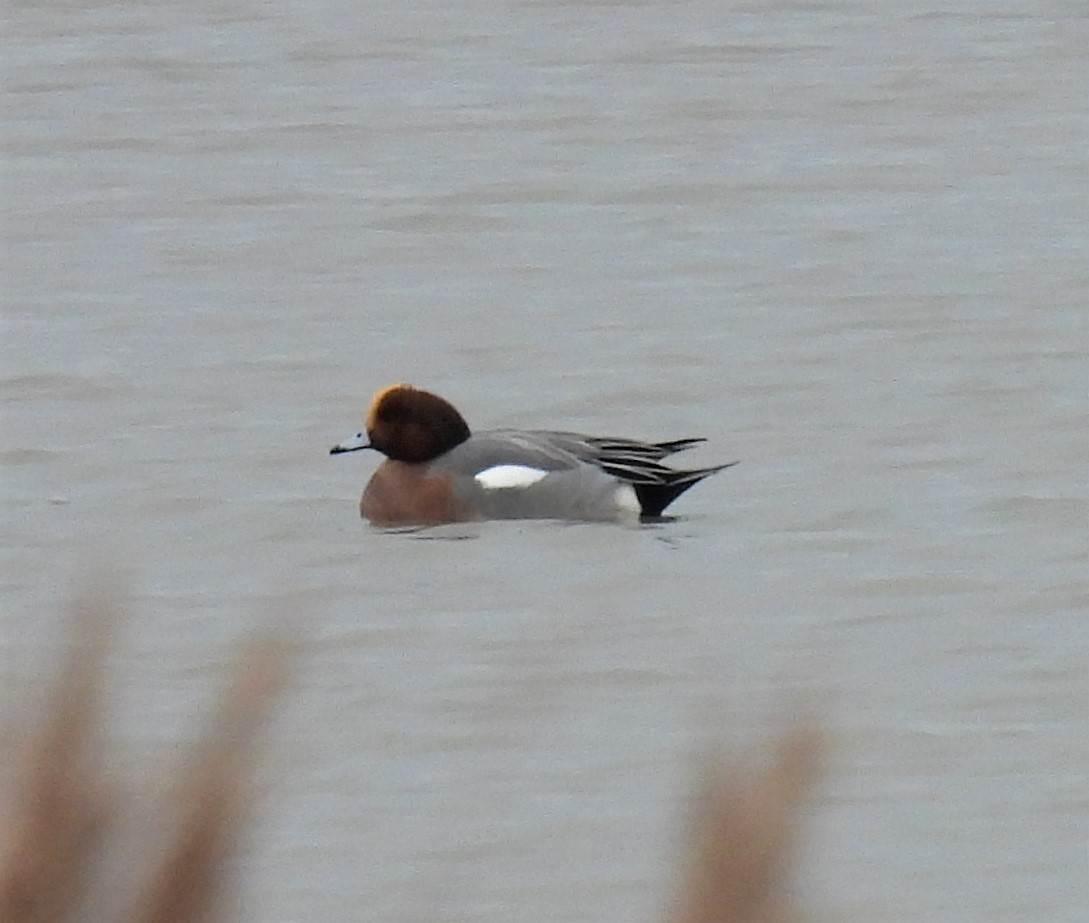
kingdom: Animalia
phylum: Chordata
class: Aves
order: Anseriformes
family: Anatidae
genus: Mareca
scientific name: Mareca penelope
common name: Eurasian wigeon
